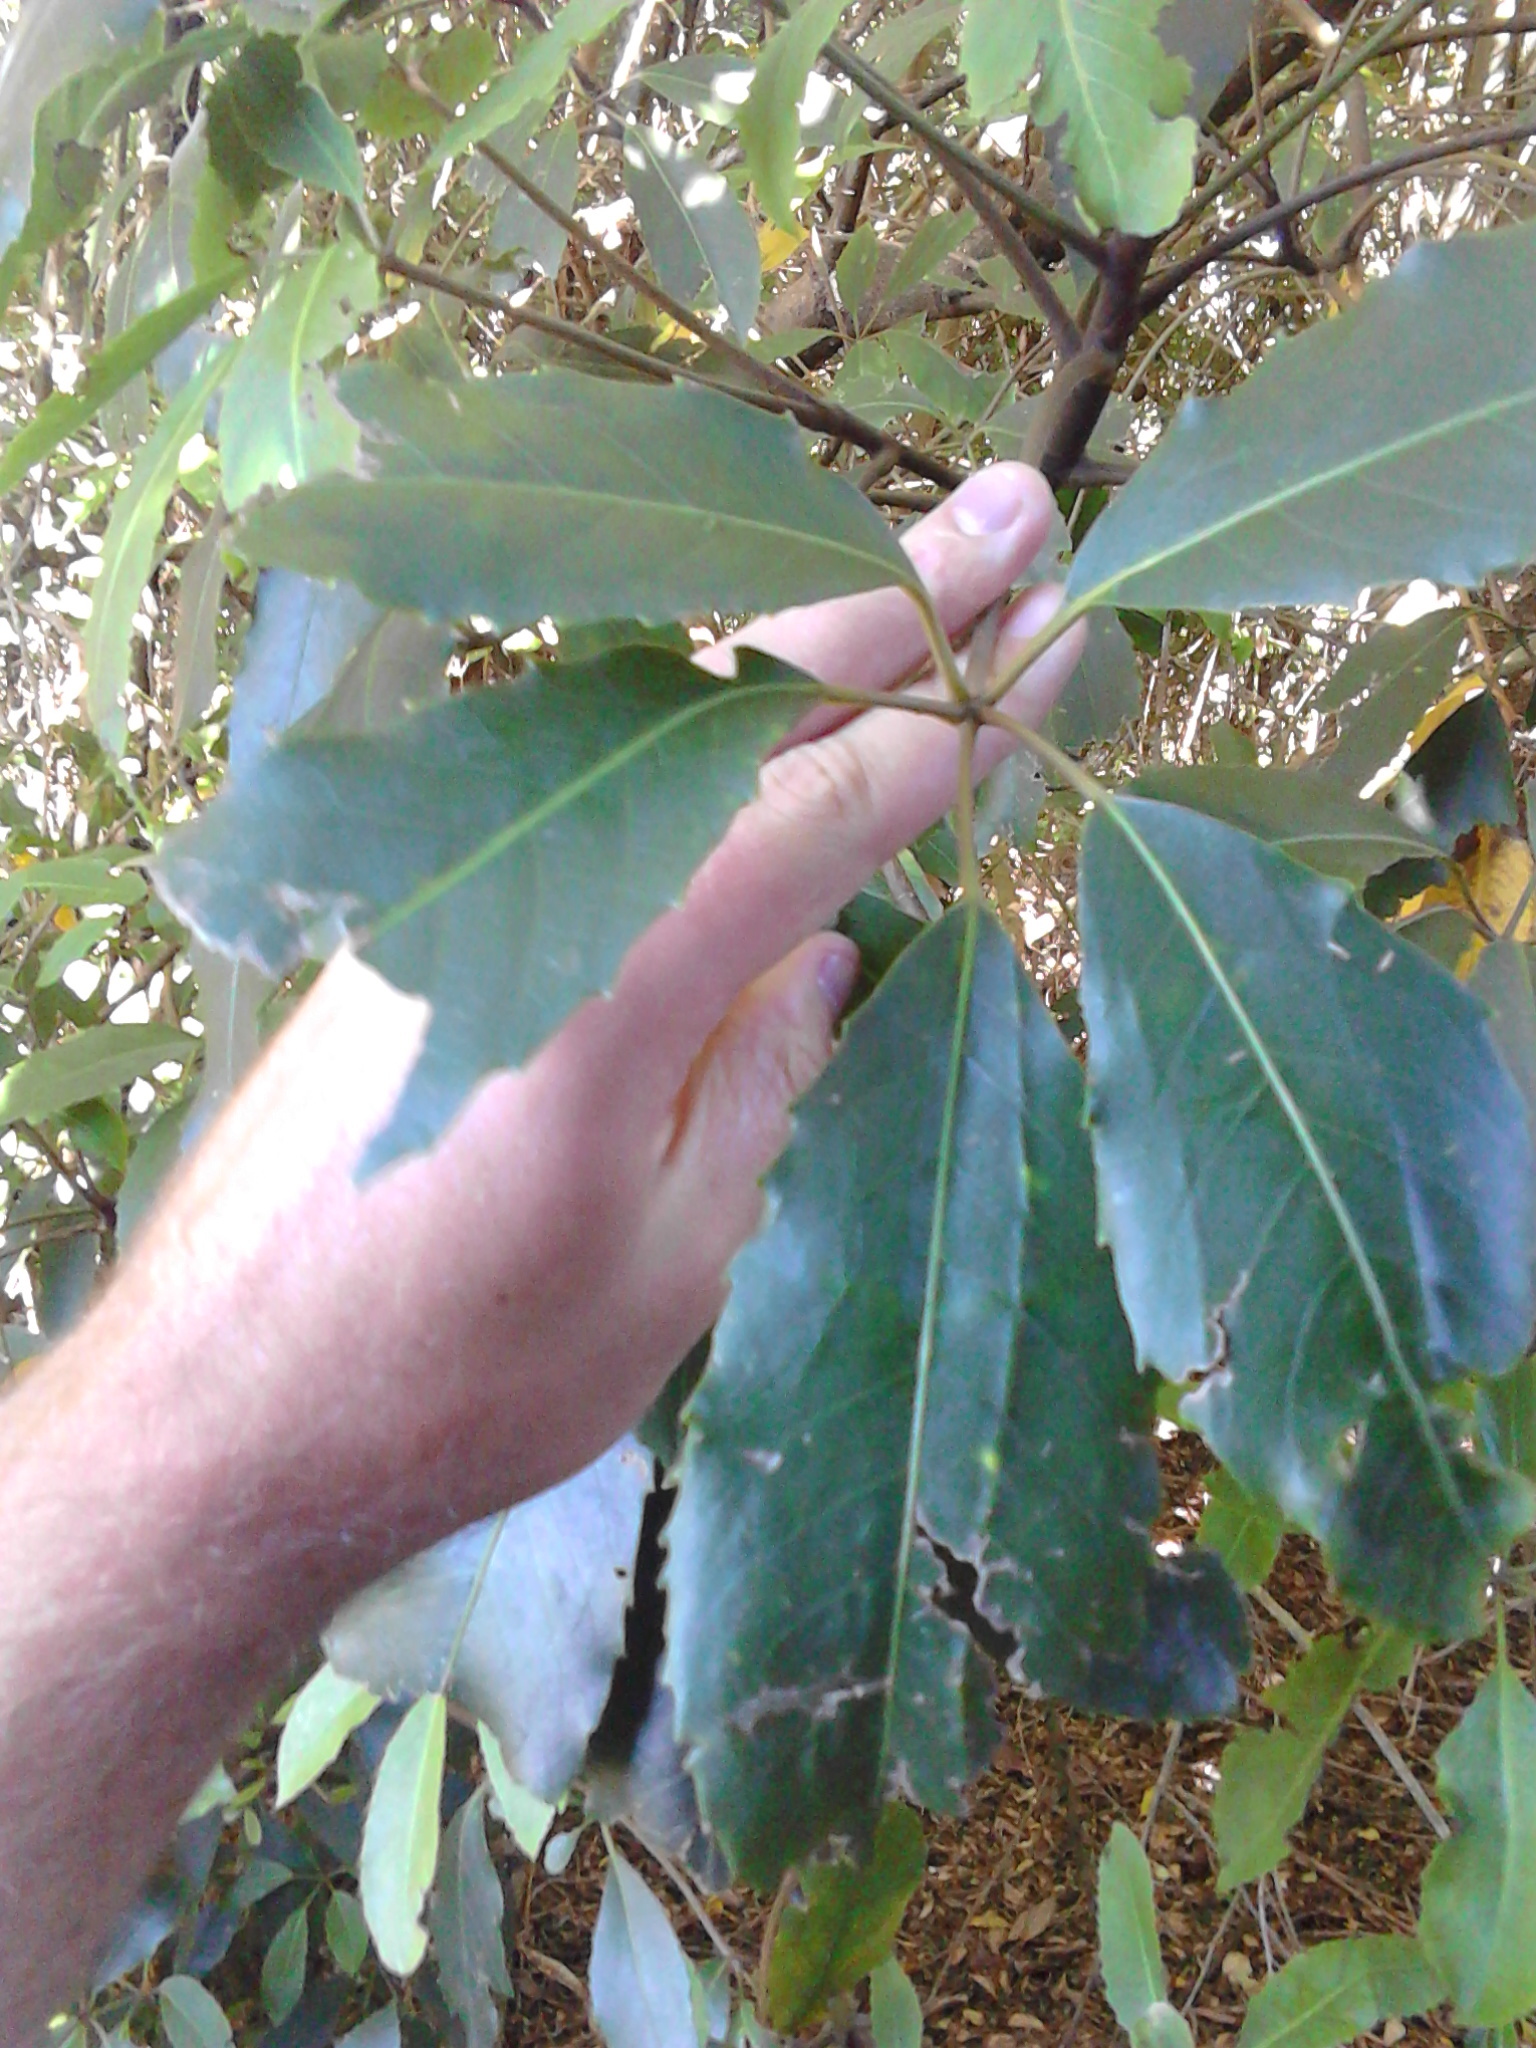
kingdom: Plantae
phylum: Tracheophyta
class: Magnoliopsida
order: Apiales
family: Araliaceae
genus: Neopanax
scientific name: Neopanax arboreus
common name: Five-fingers
